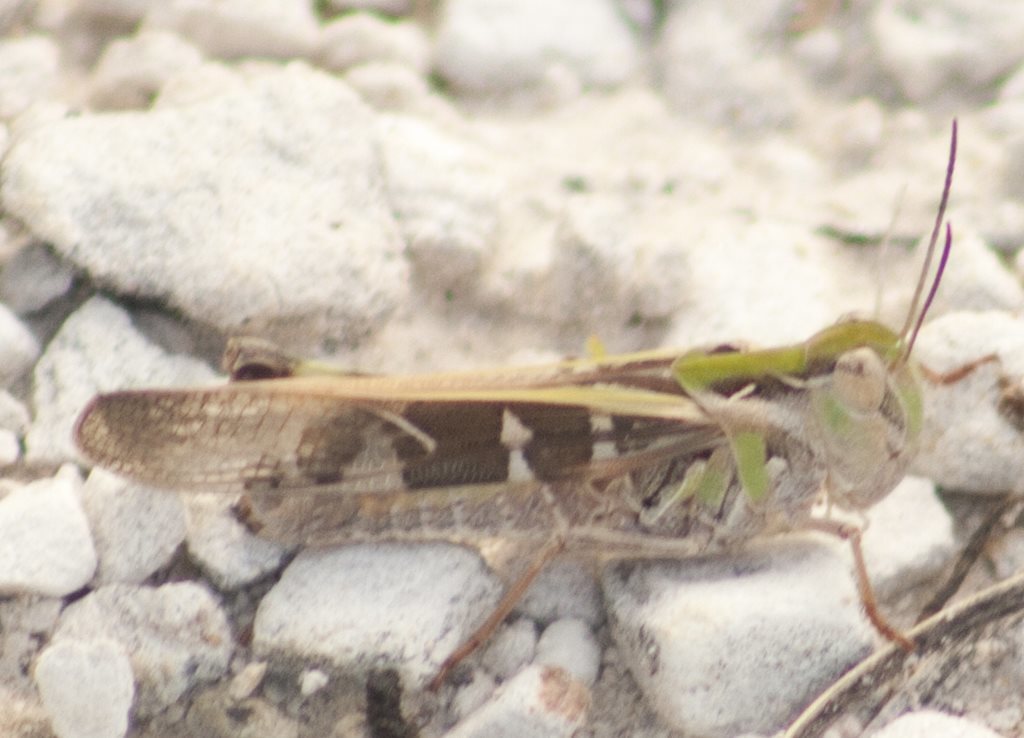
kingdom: Animalia
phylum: Arthropoda
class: Insecta
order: Orthoptera
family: Acrididae
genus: Oedaleus
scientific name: Oedaleus australis
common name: Eastern oedaleus
